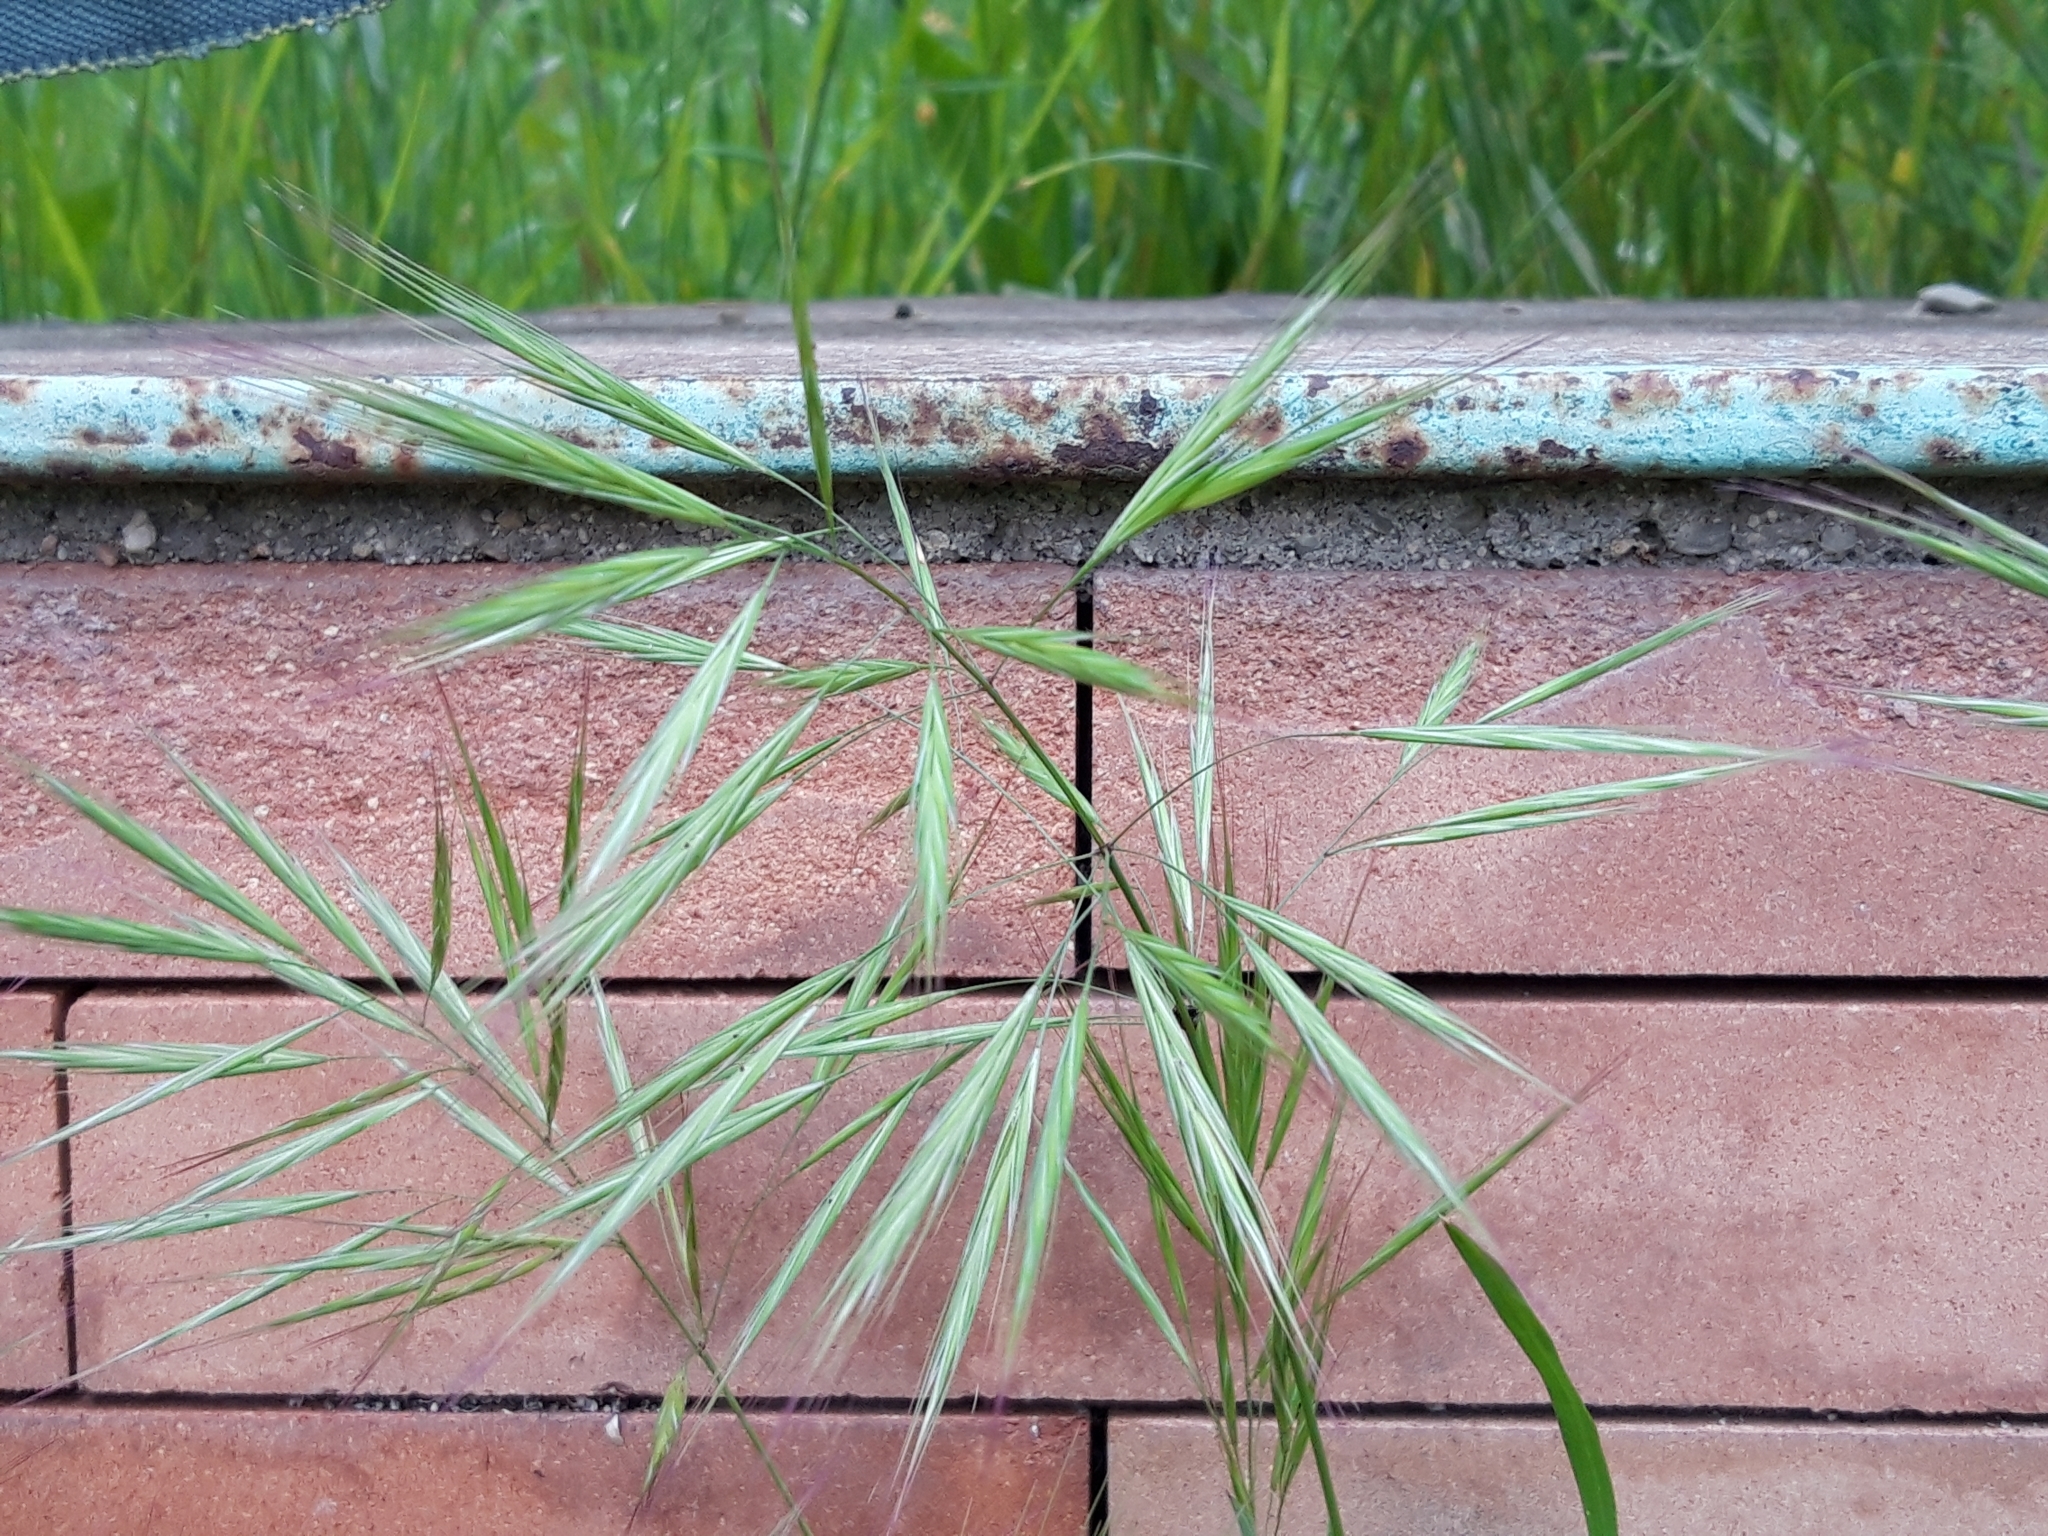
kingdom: Plantae
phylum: Tracheophyta
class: Liliopsida
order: Poales
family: Poaceae
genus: Bromus
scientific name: Bromus diandrus
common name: Ripgut brome
